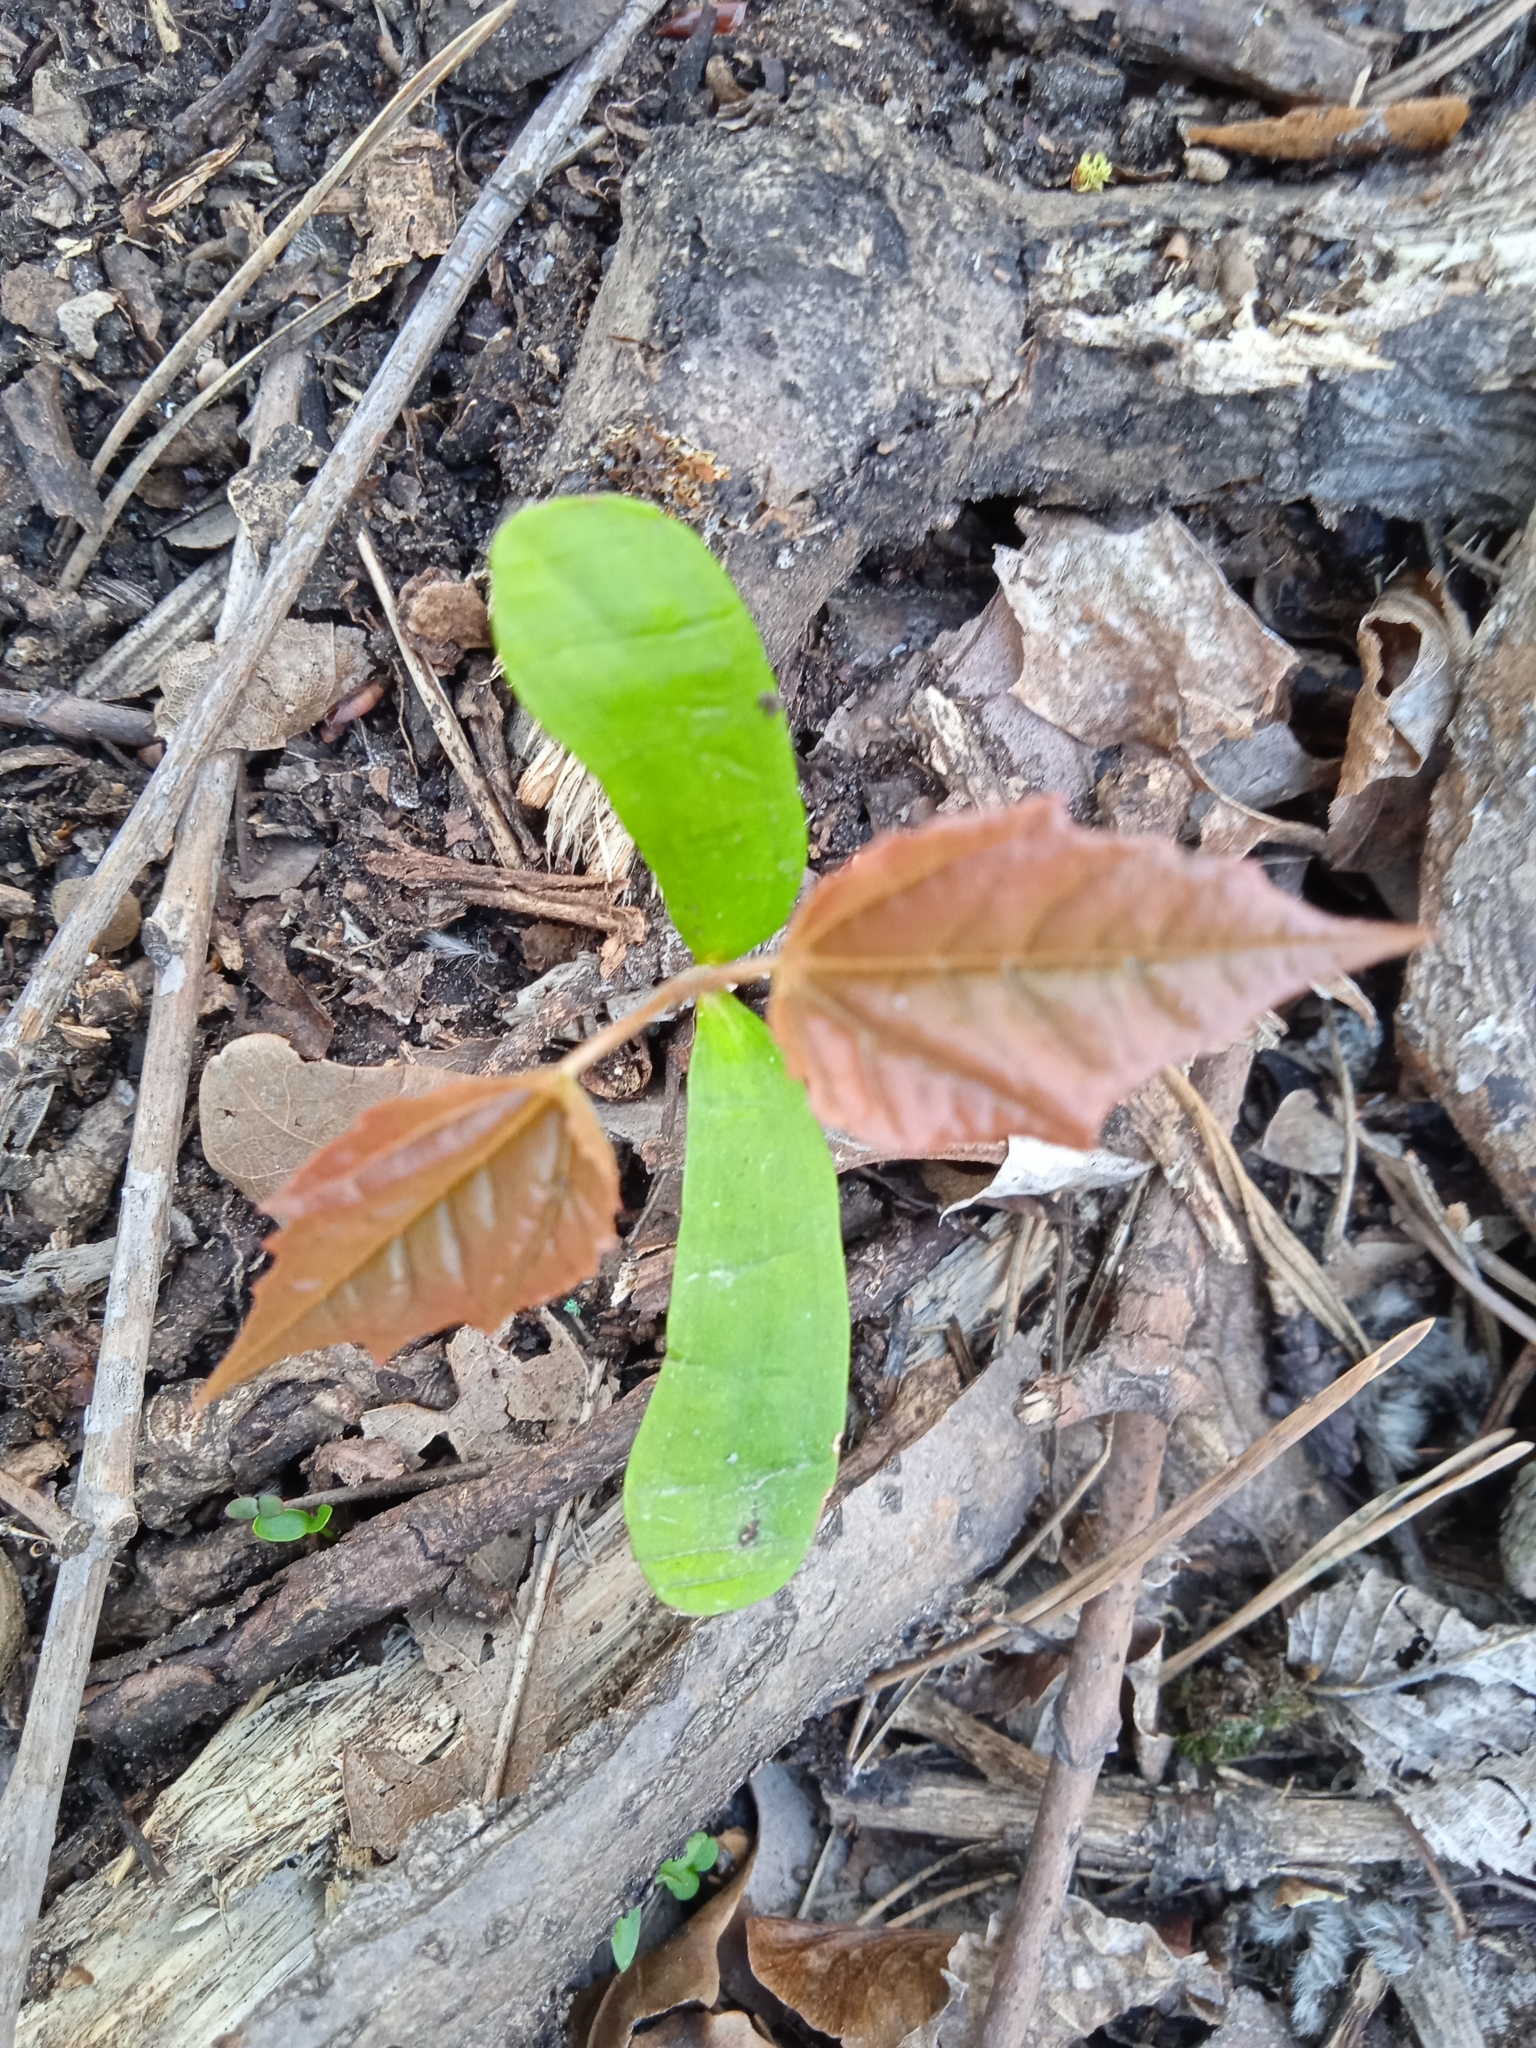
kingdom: Plantae
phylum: Tracheophyta
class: Magnoliopsida
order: Sapindales
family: Sapindaceae
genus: Acer
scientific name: Acer platanoides
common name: Norway maple
